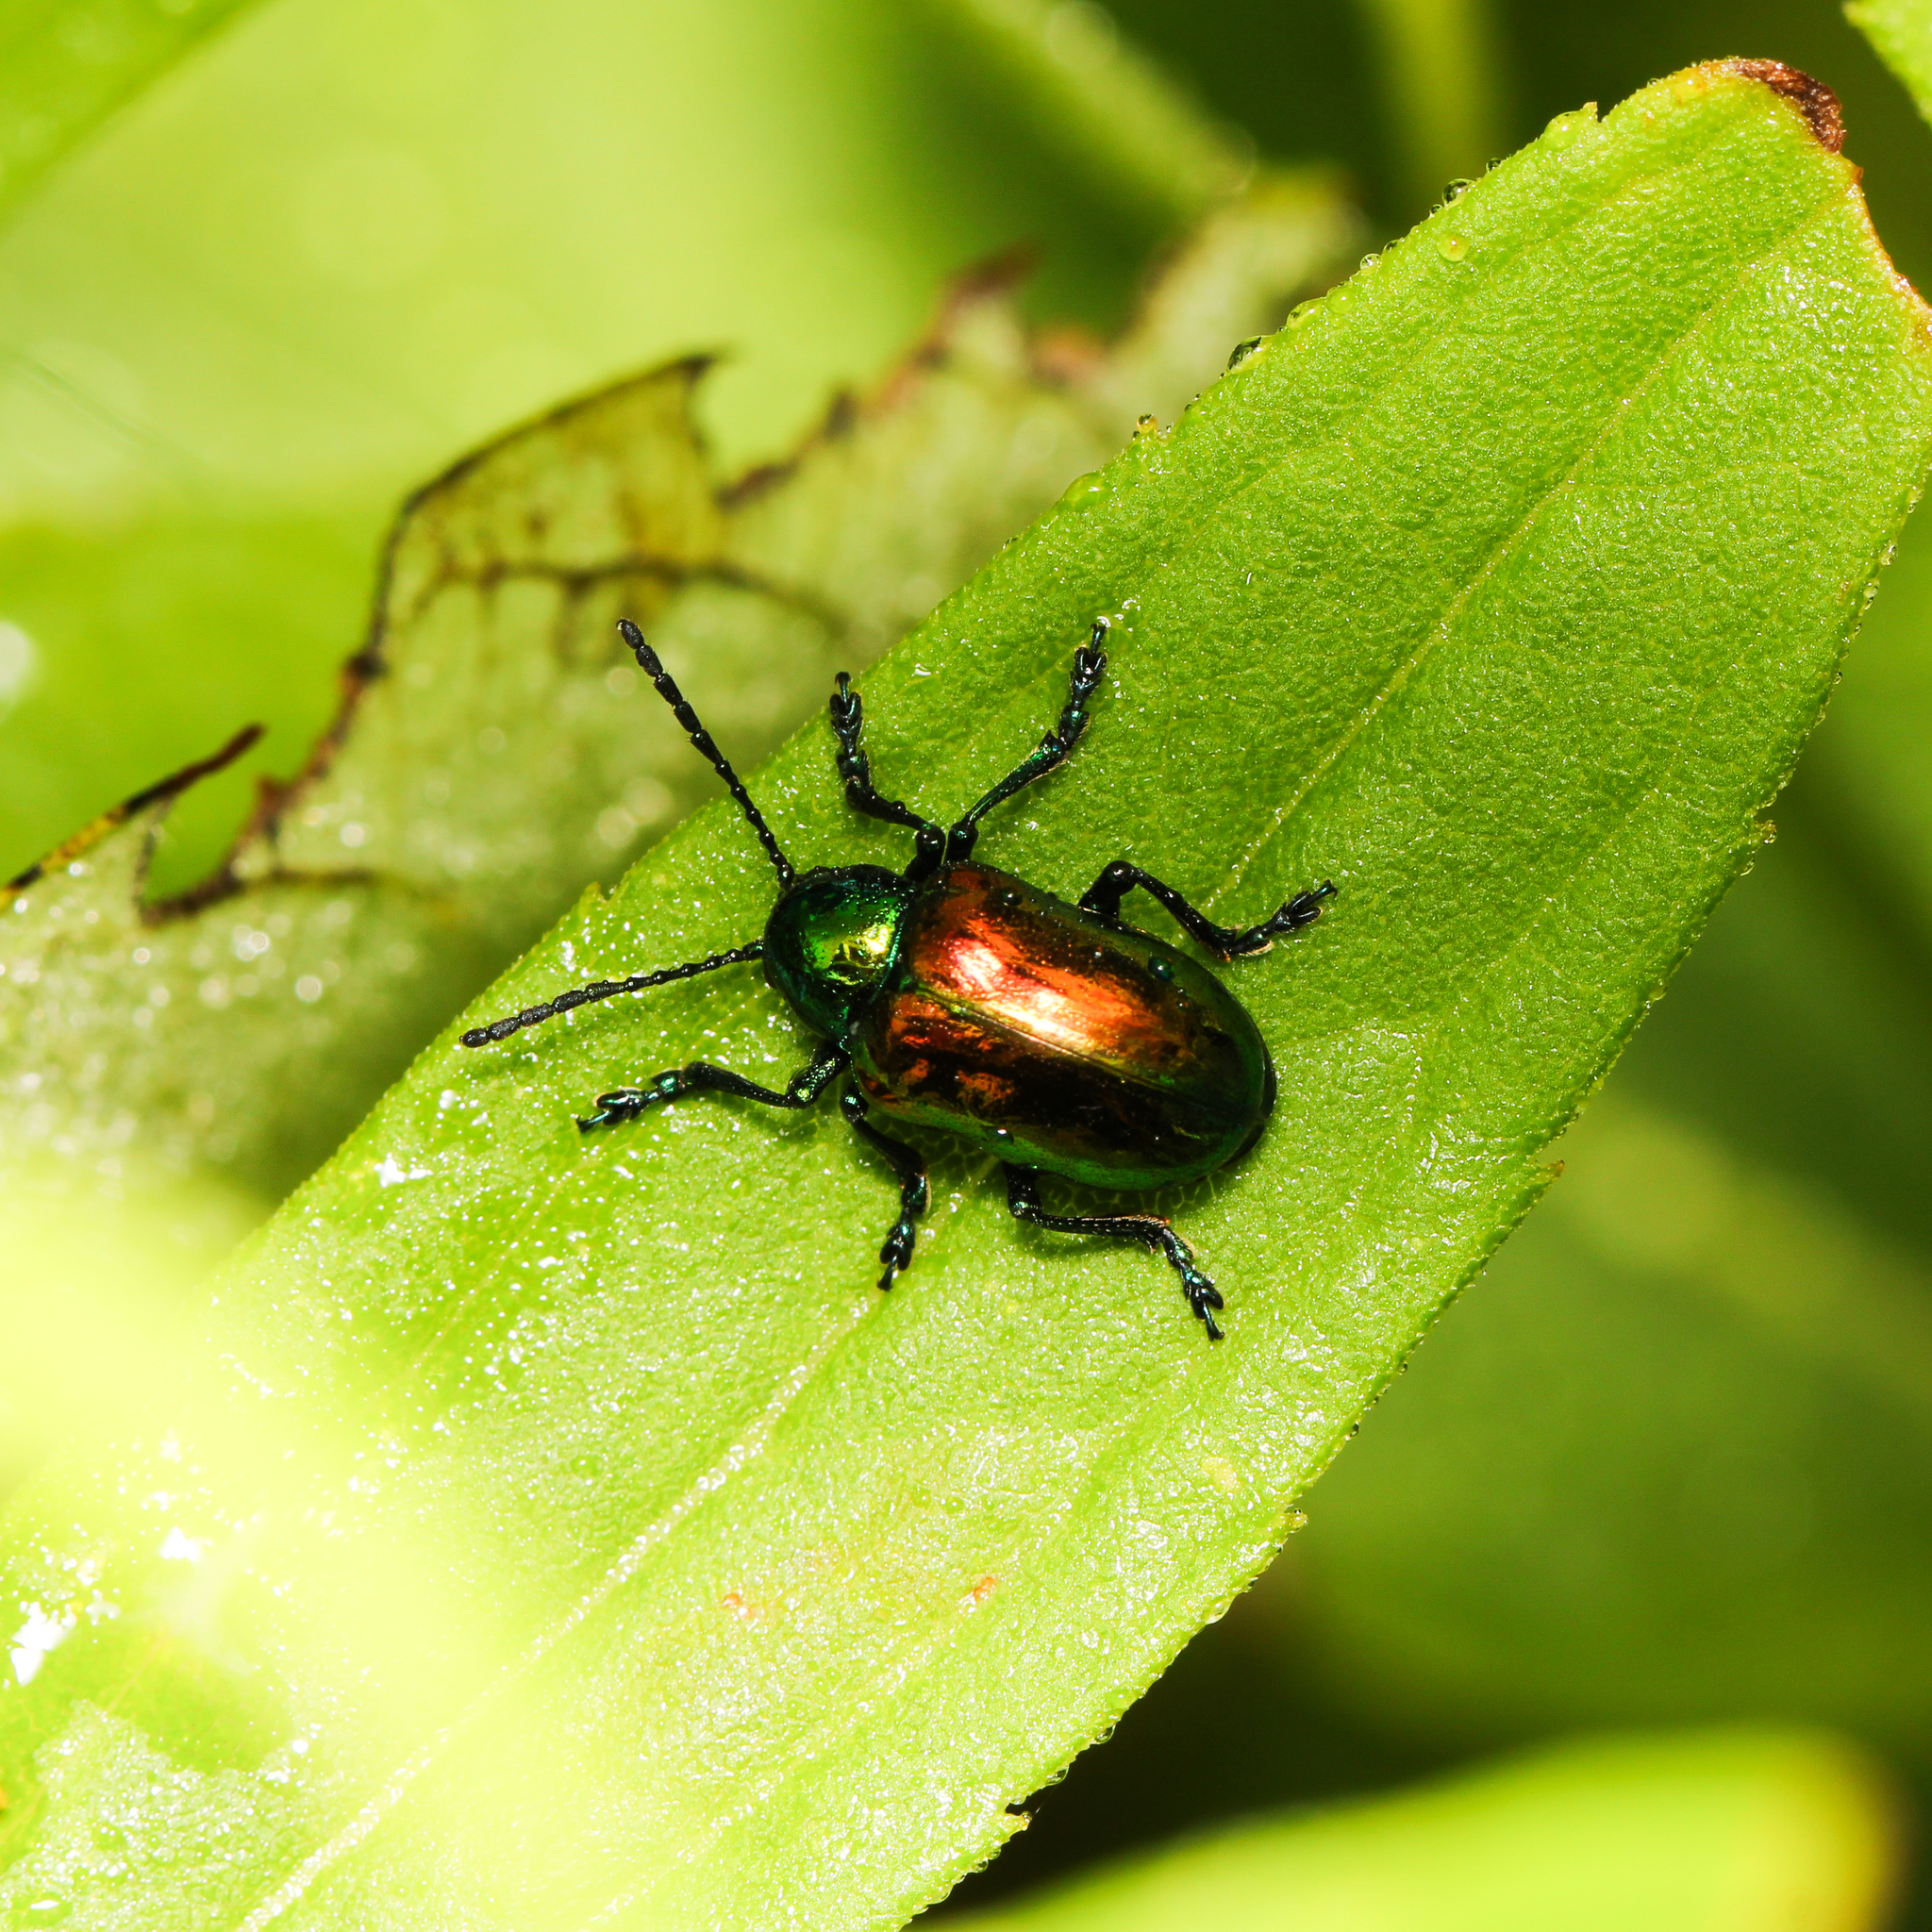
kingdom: Animalia
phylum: Arthropoda
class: Insecta
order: Coleoptera
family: Chrysomelidae
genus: Chrysochus
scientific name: Chrysochus auratus
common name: Dogbane leaf beetle
